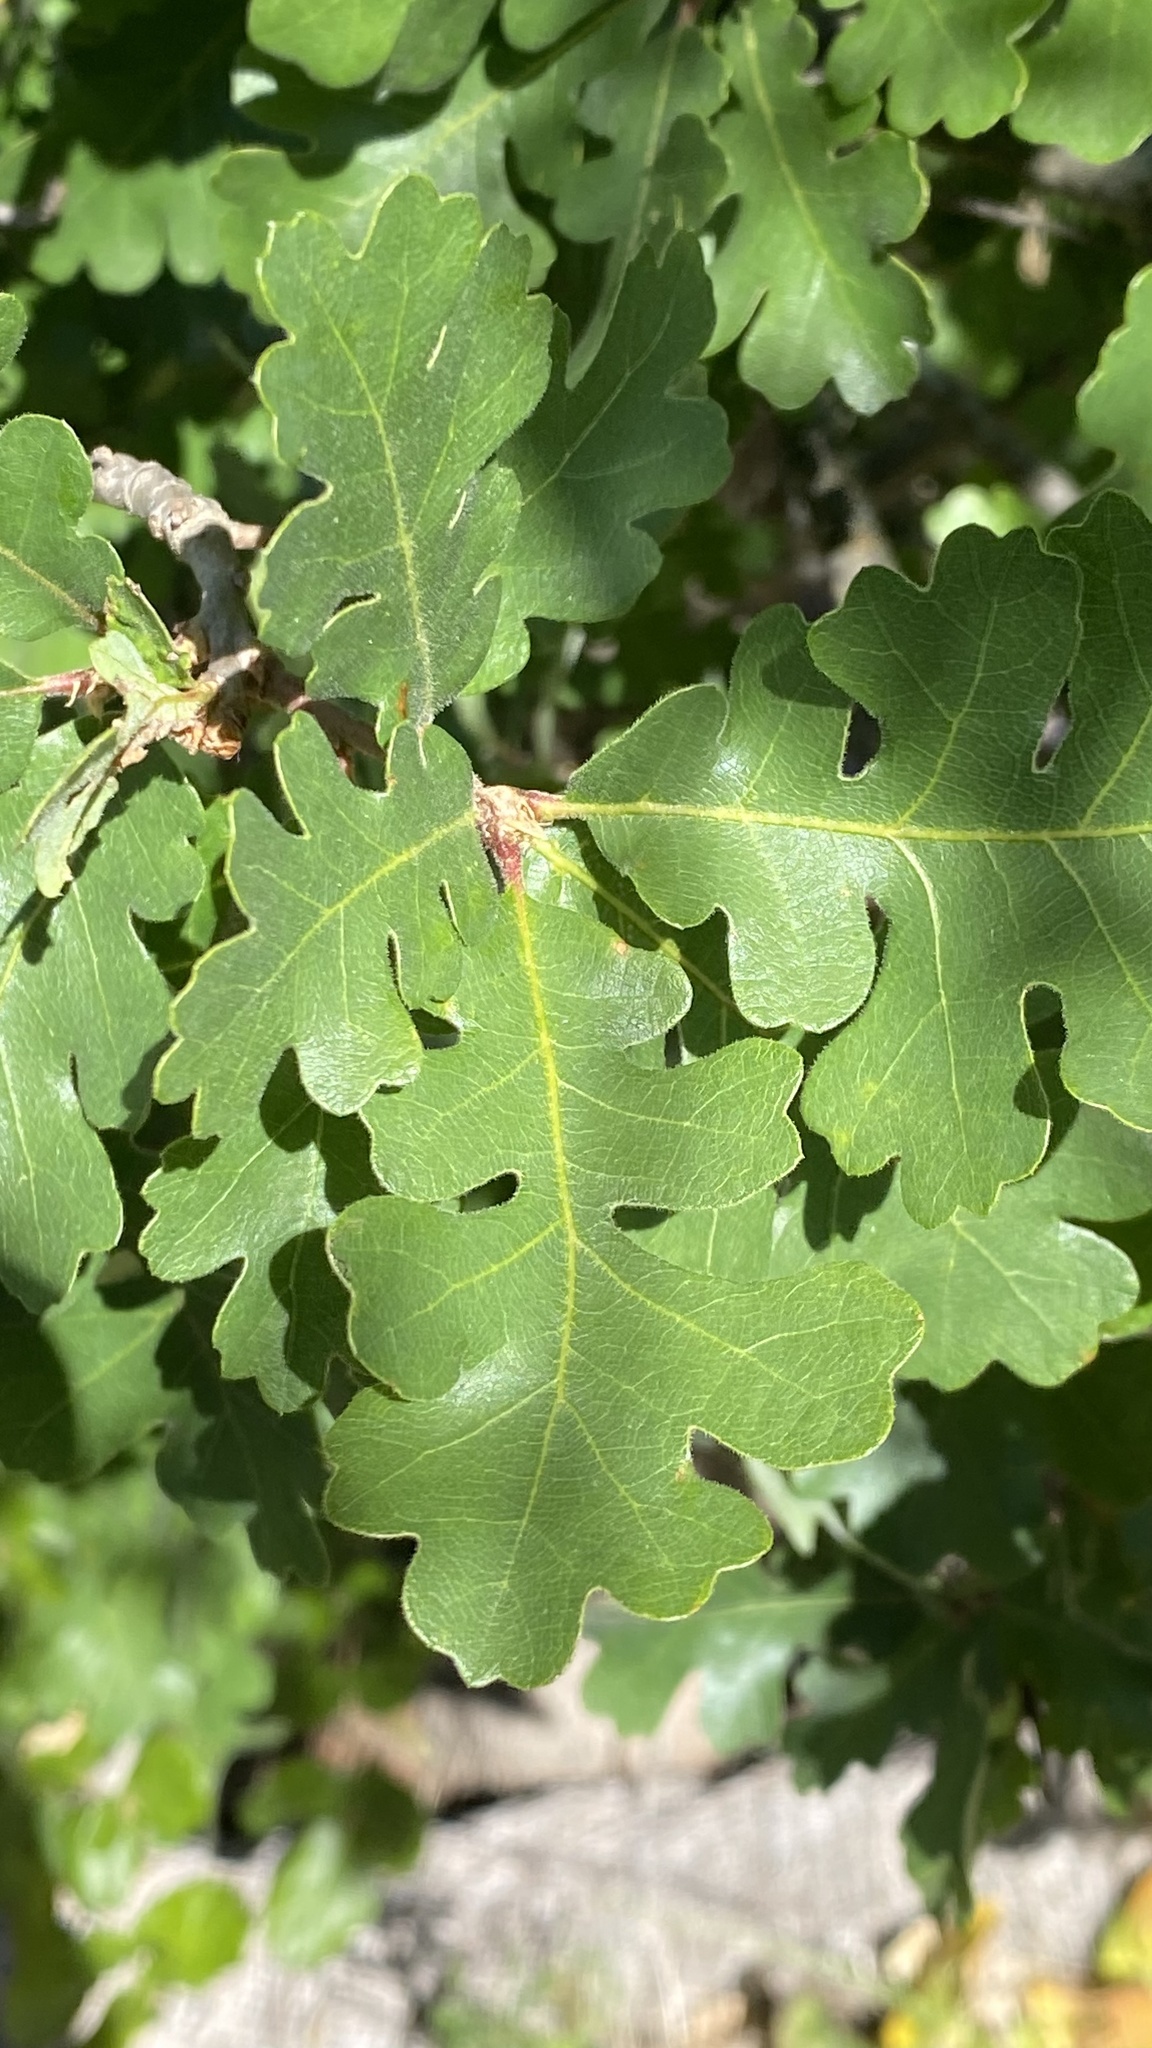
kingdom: Plantae
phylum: Tracheophyta
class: Magnoliopsida
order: Fagales
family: Fagaceae
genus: Quercus
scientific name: Quercus lobata
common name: Valley oak
